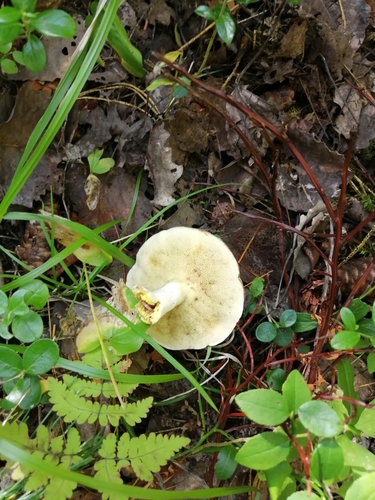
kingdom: Fungi
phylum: Basidiomycota
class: Agaricomycetes
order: Boletales
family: Suillaceae
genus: Suillus
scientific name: Suillus placidus
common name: Slippery white bolete
